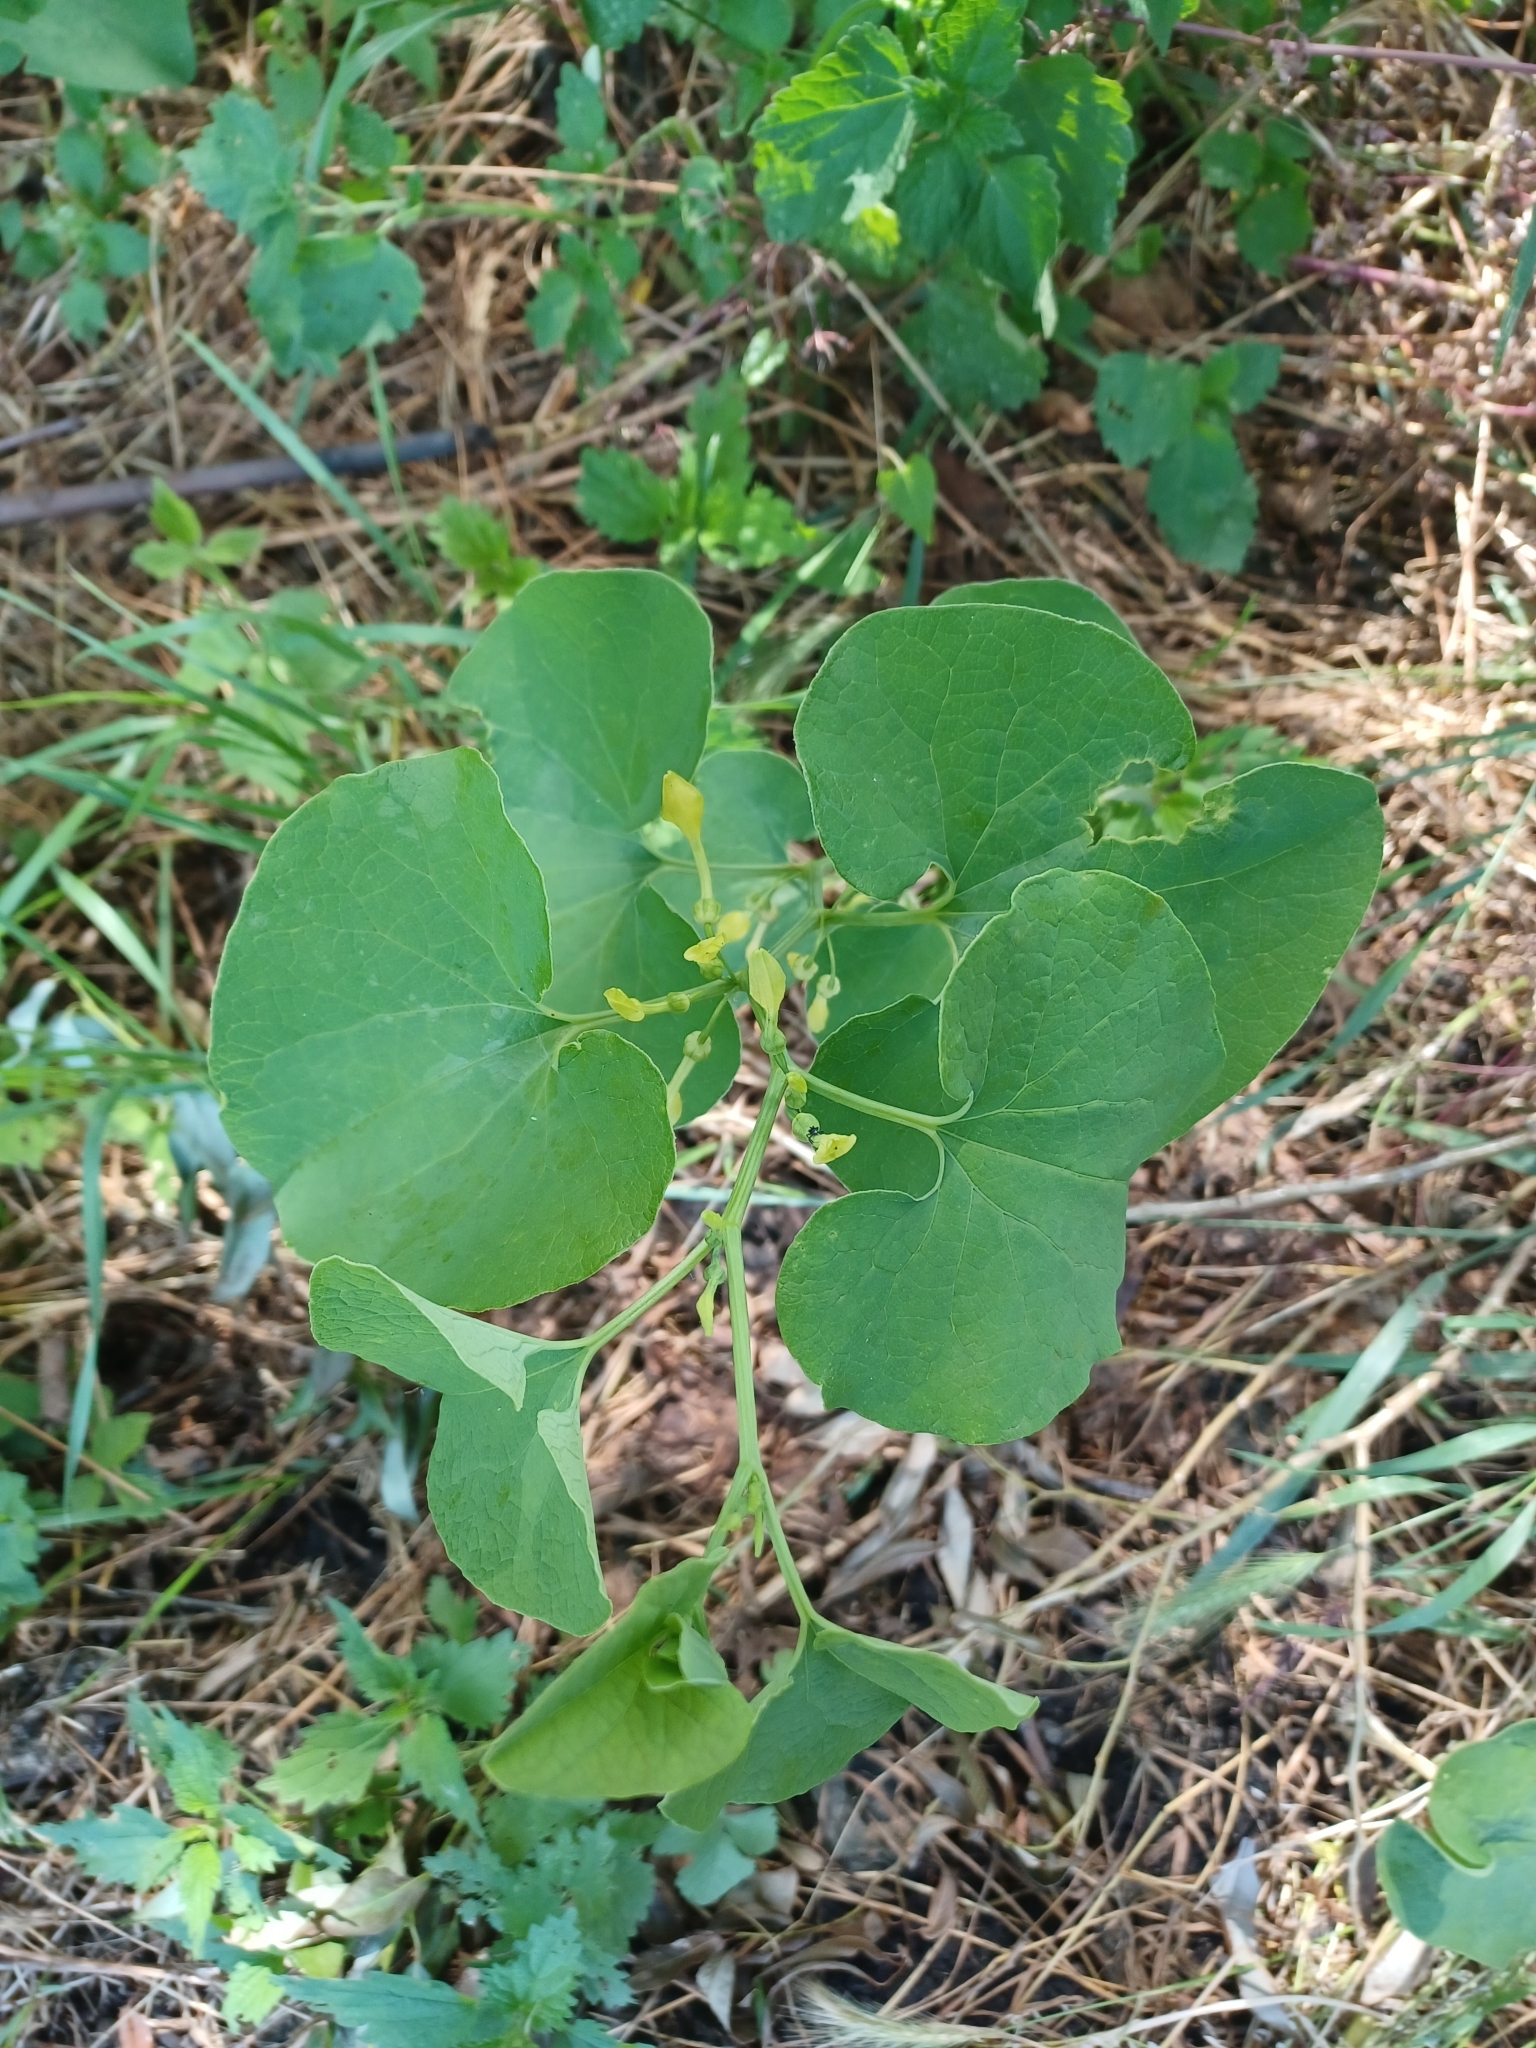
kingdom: Plantae
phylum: Tracheophyta
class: Magnoliopsida
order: Piperales
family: Aristolochiaceae
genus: Aristolochia
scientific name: Aristolochia clematitis
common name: Birthwort
